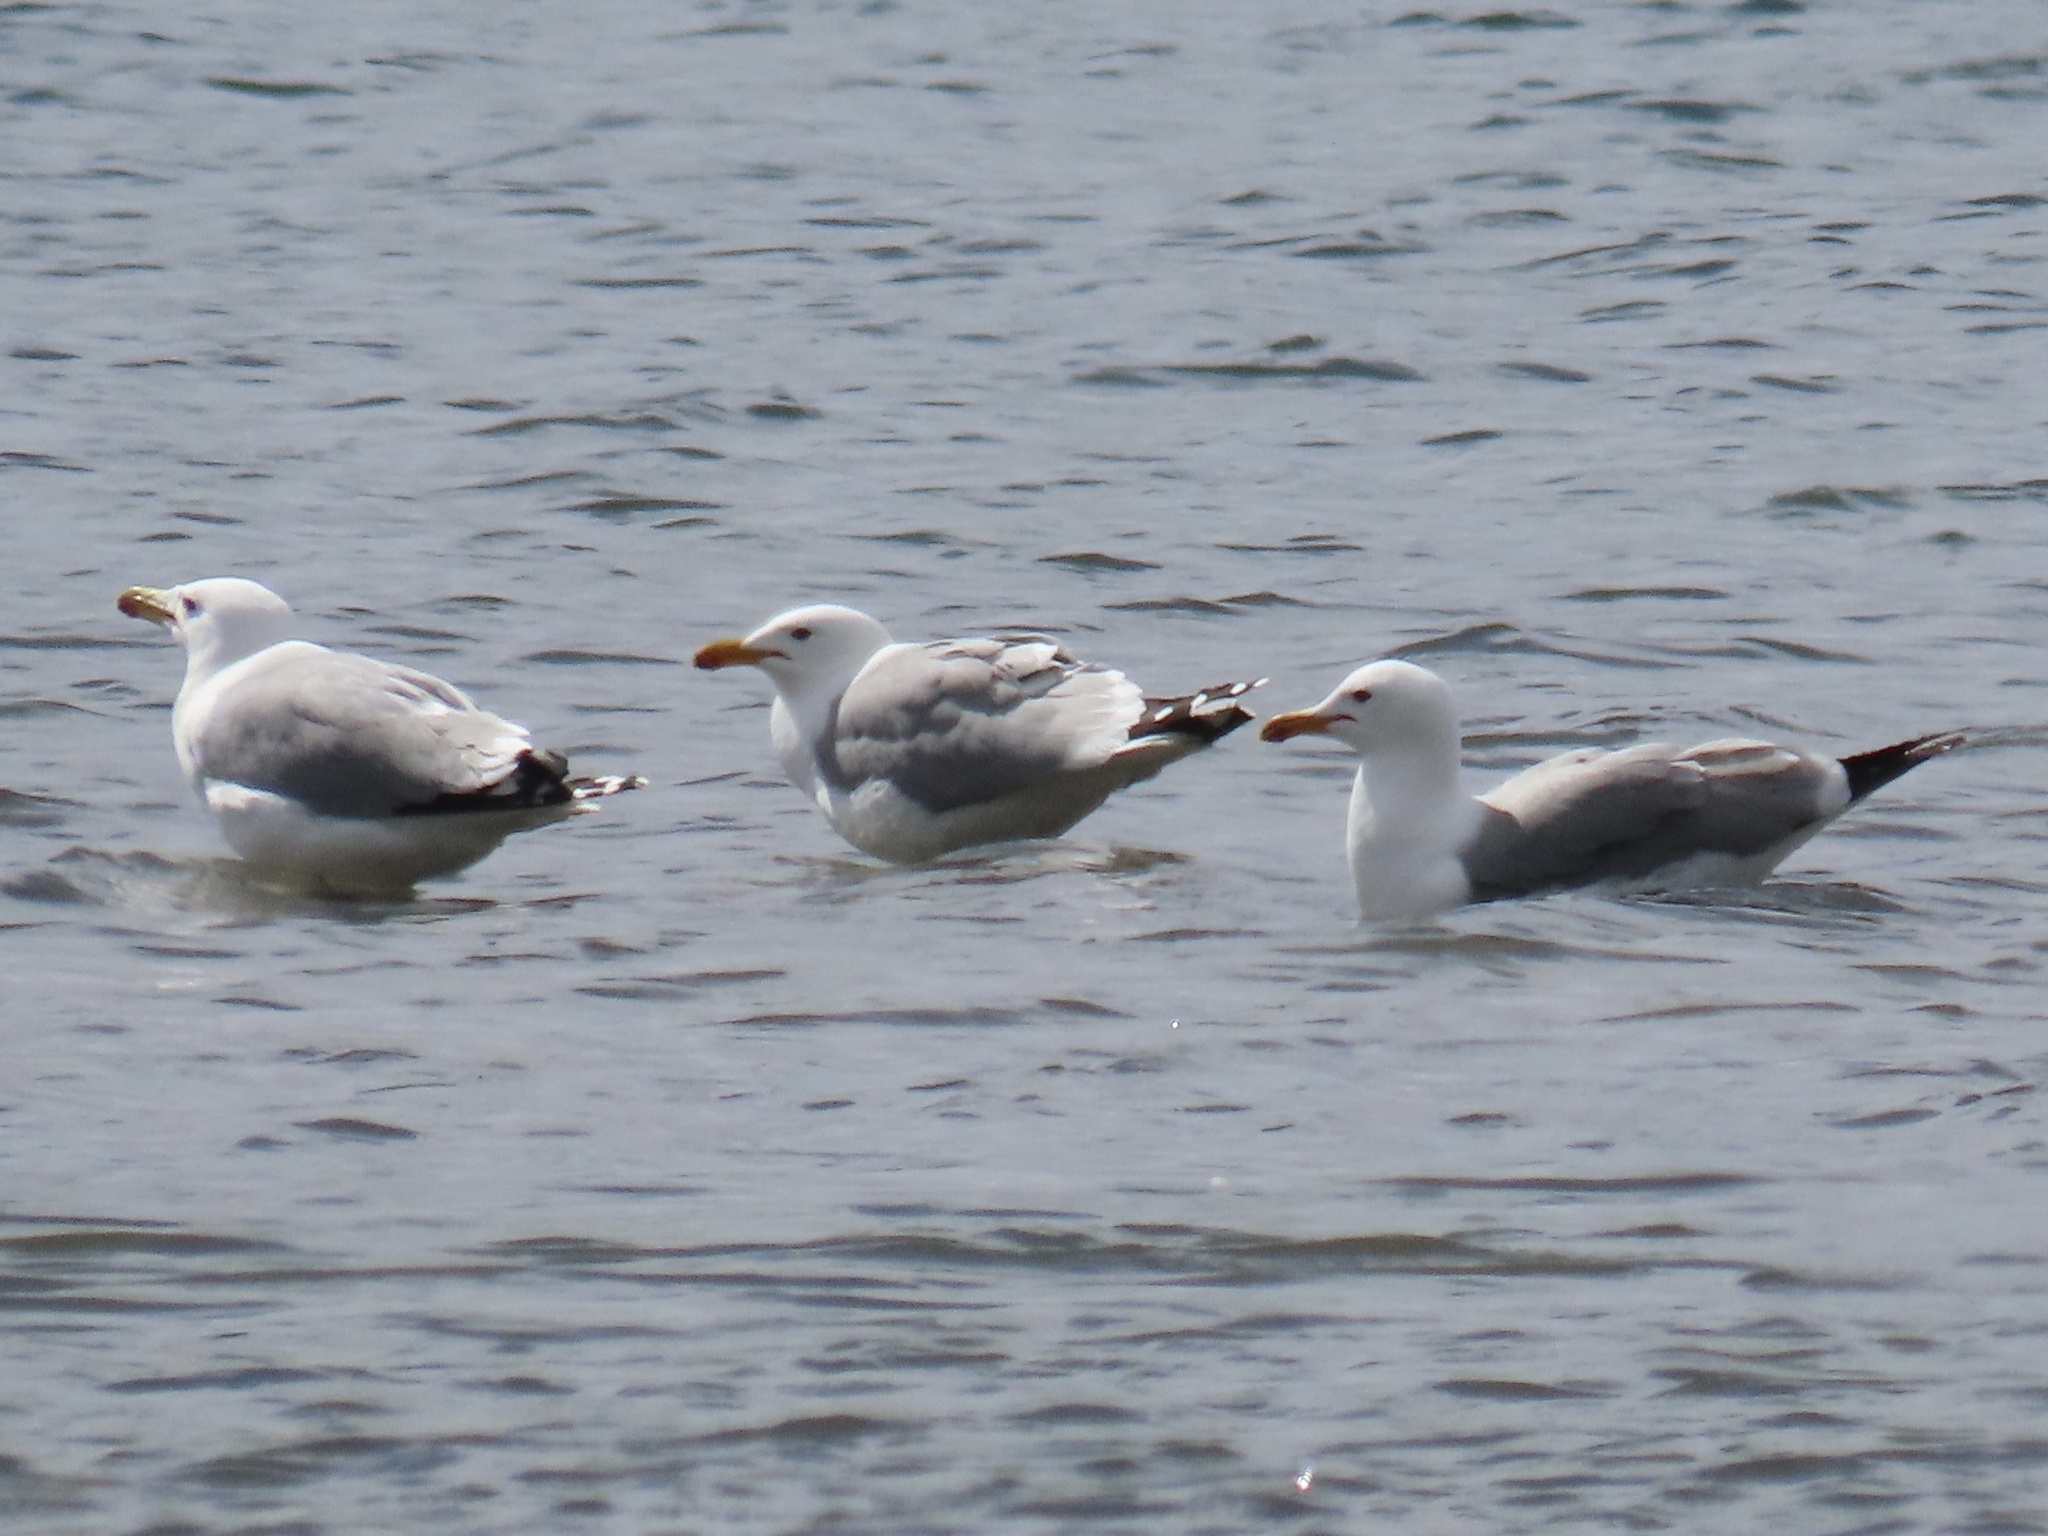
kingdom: Animalia
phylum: Chordata
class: Aves
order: Charadriiformes
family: Laridae
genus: Larus
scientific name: Larus californicus
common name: California gull
